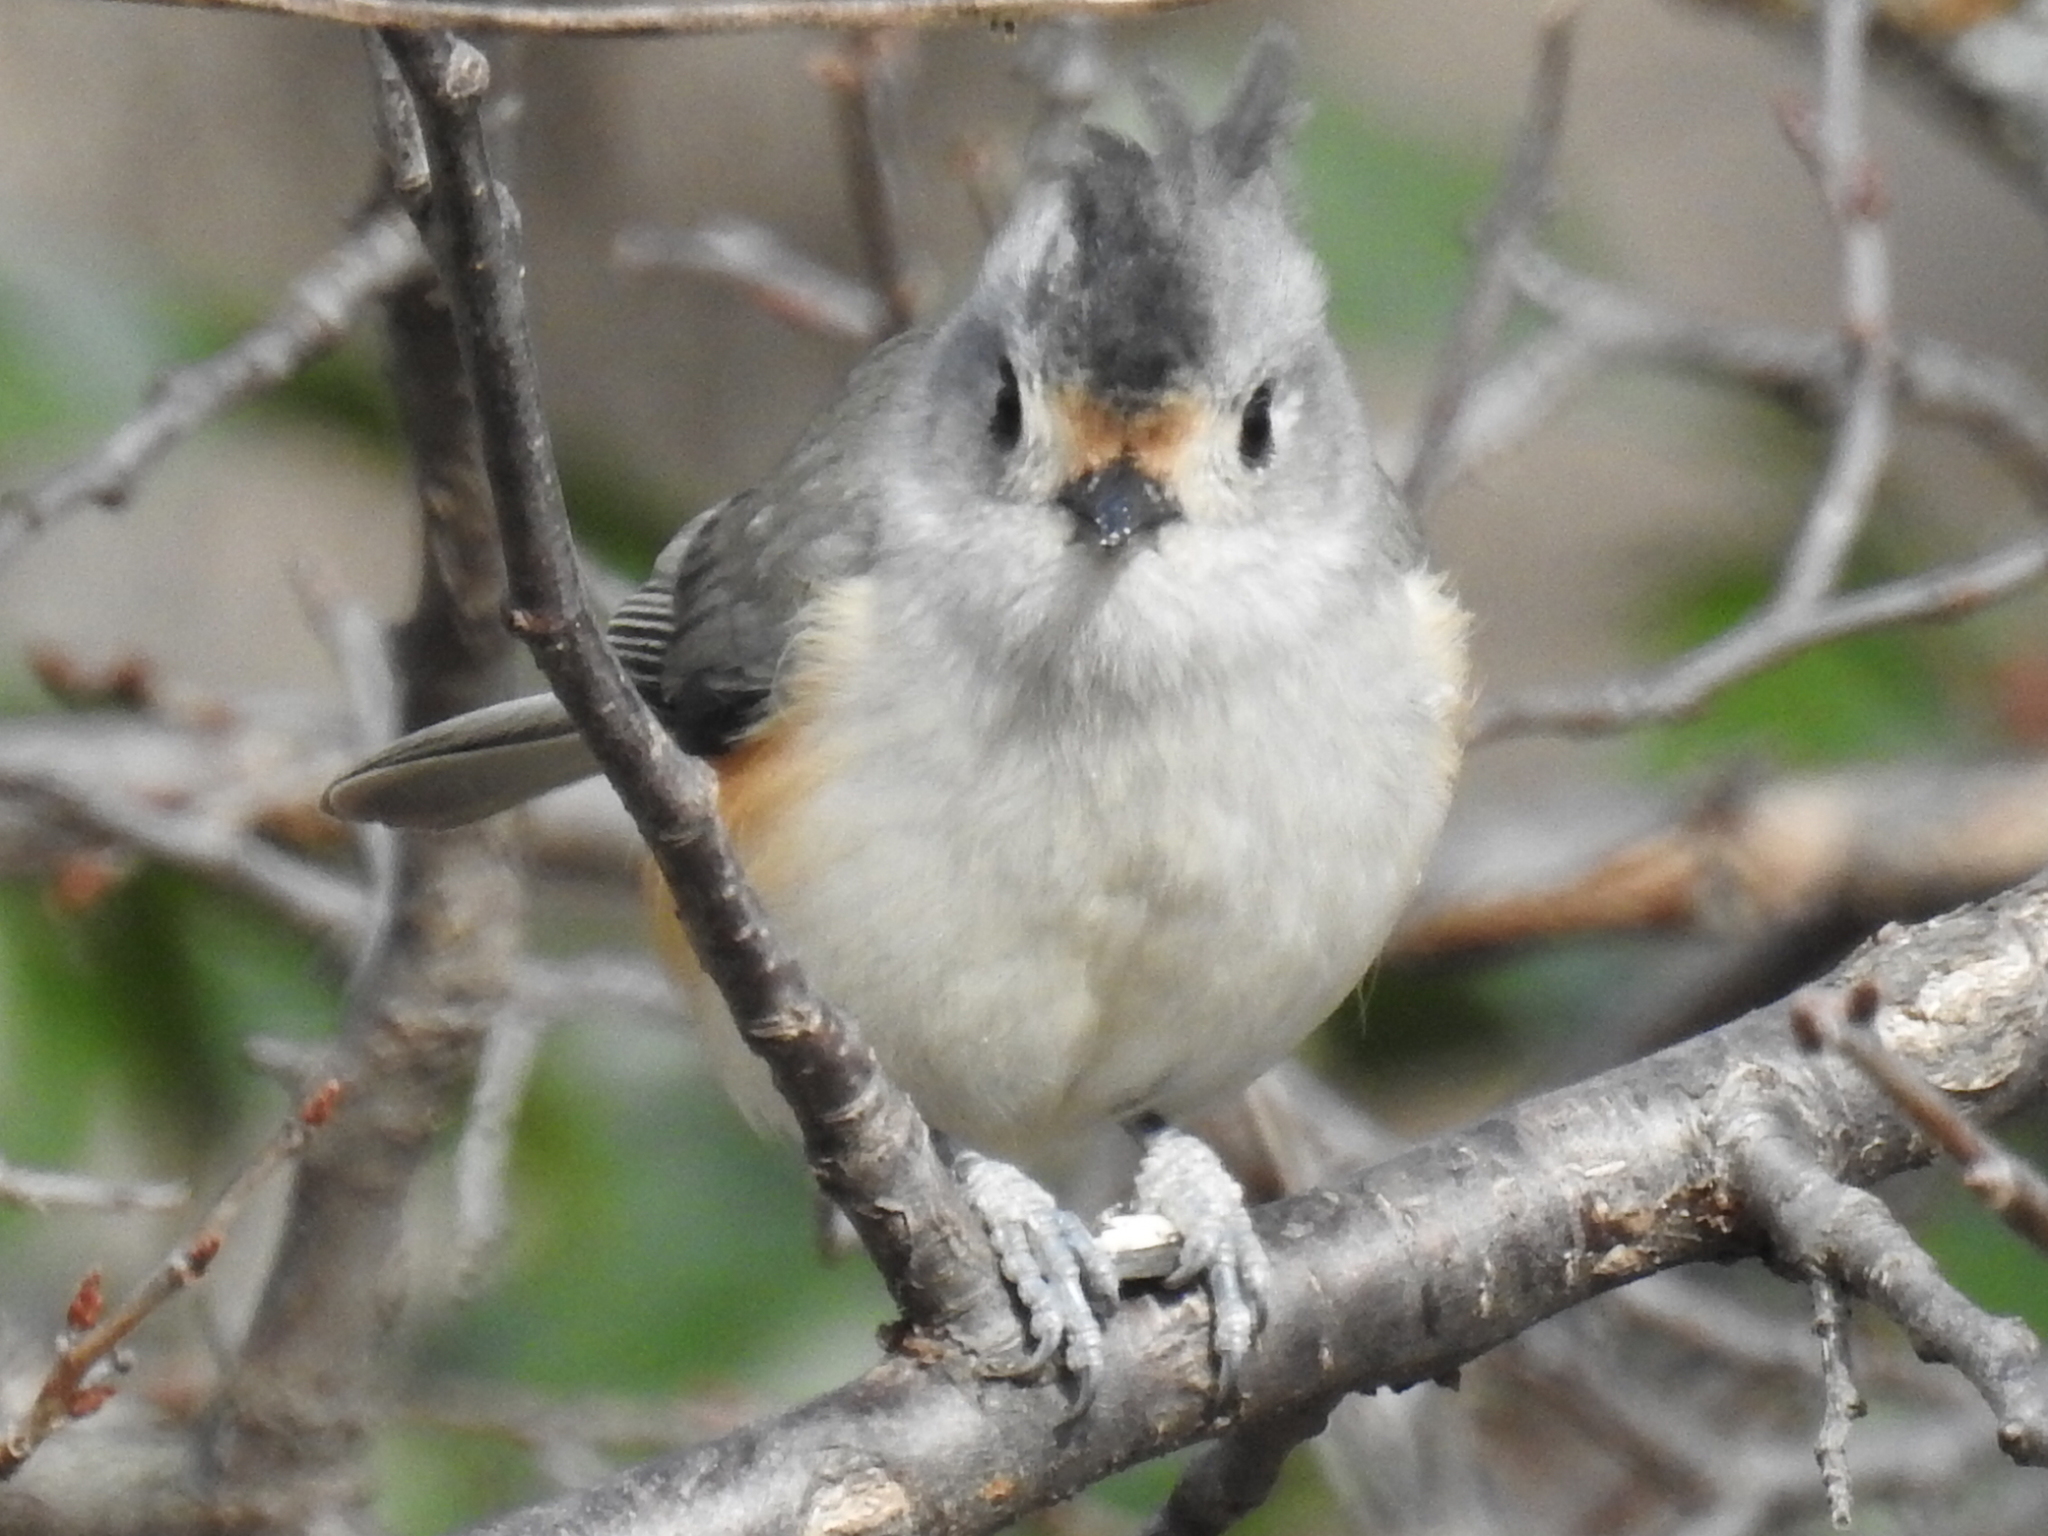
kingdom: Animalia
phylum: Chordata
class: Aves
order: Passeriformes
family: Paridae
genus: Baeolophus
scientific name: Baeolophus
